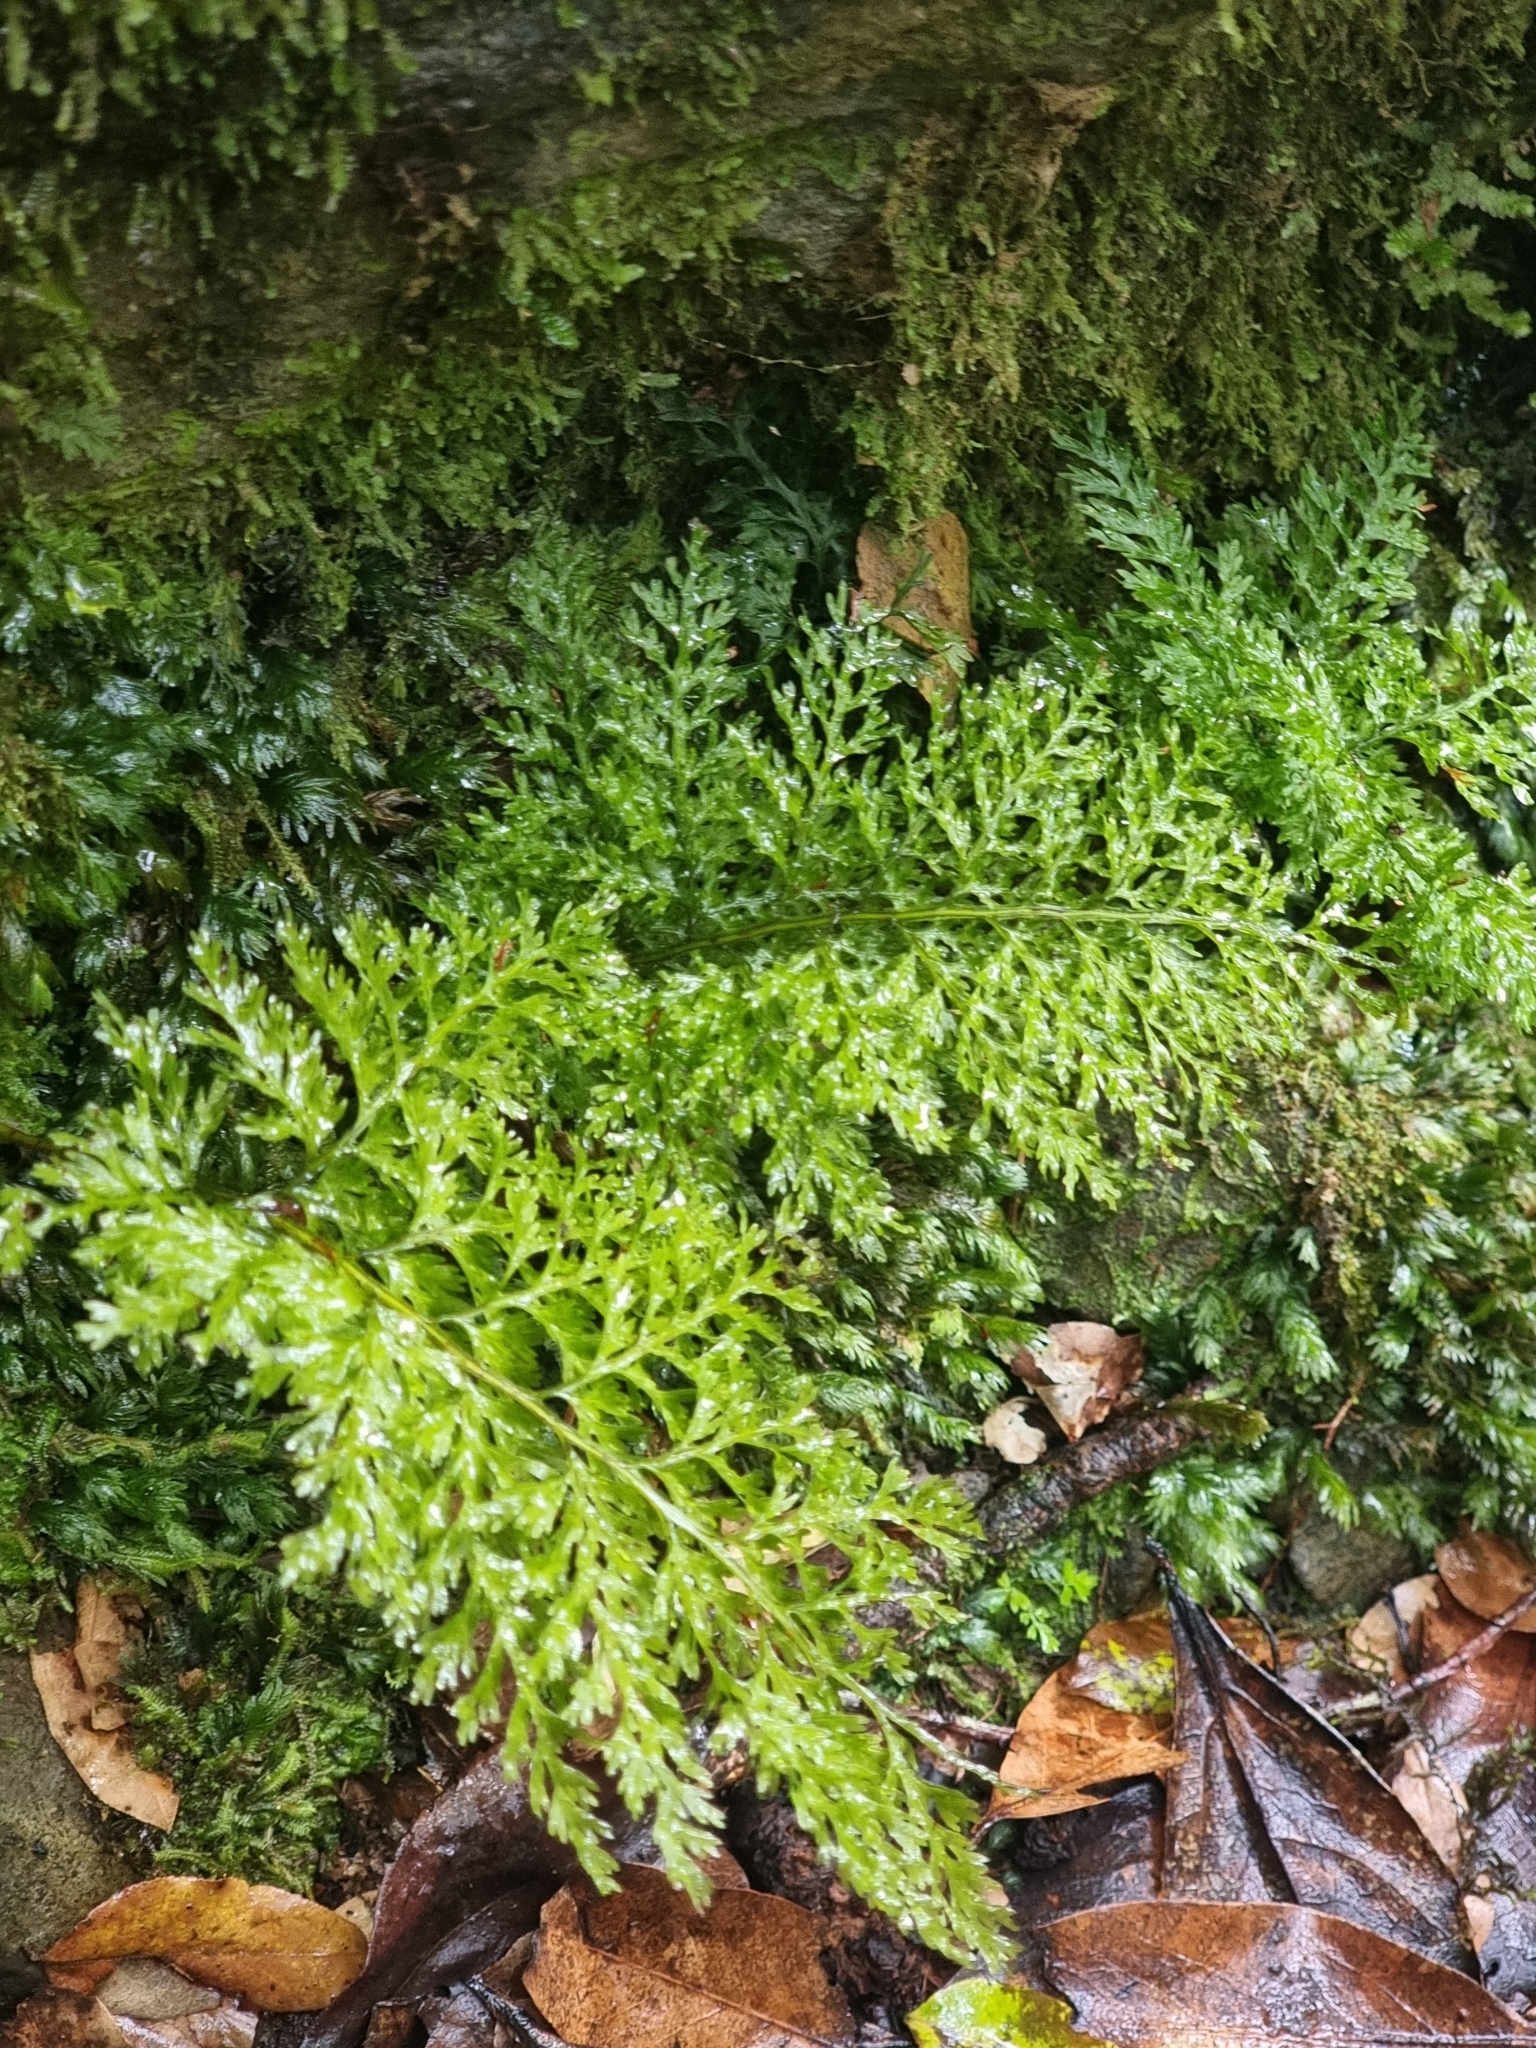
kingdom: Plantae
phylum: Tracheophyta
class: Polypodiopsida
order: Hymenophyllales
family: Hymenophyllaceae
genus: Vandenboschia
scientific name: Vandenboschia speciosa
